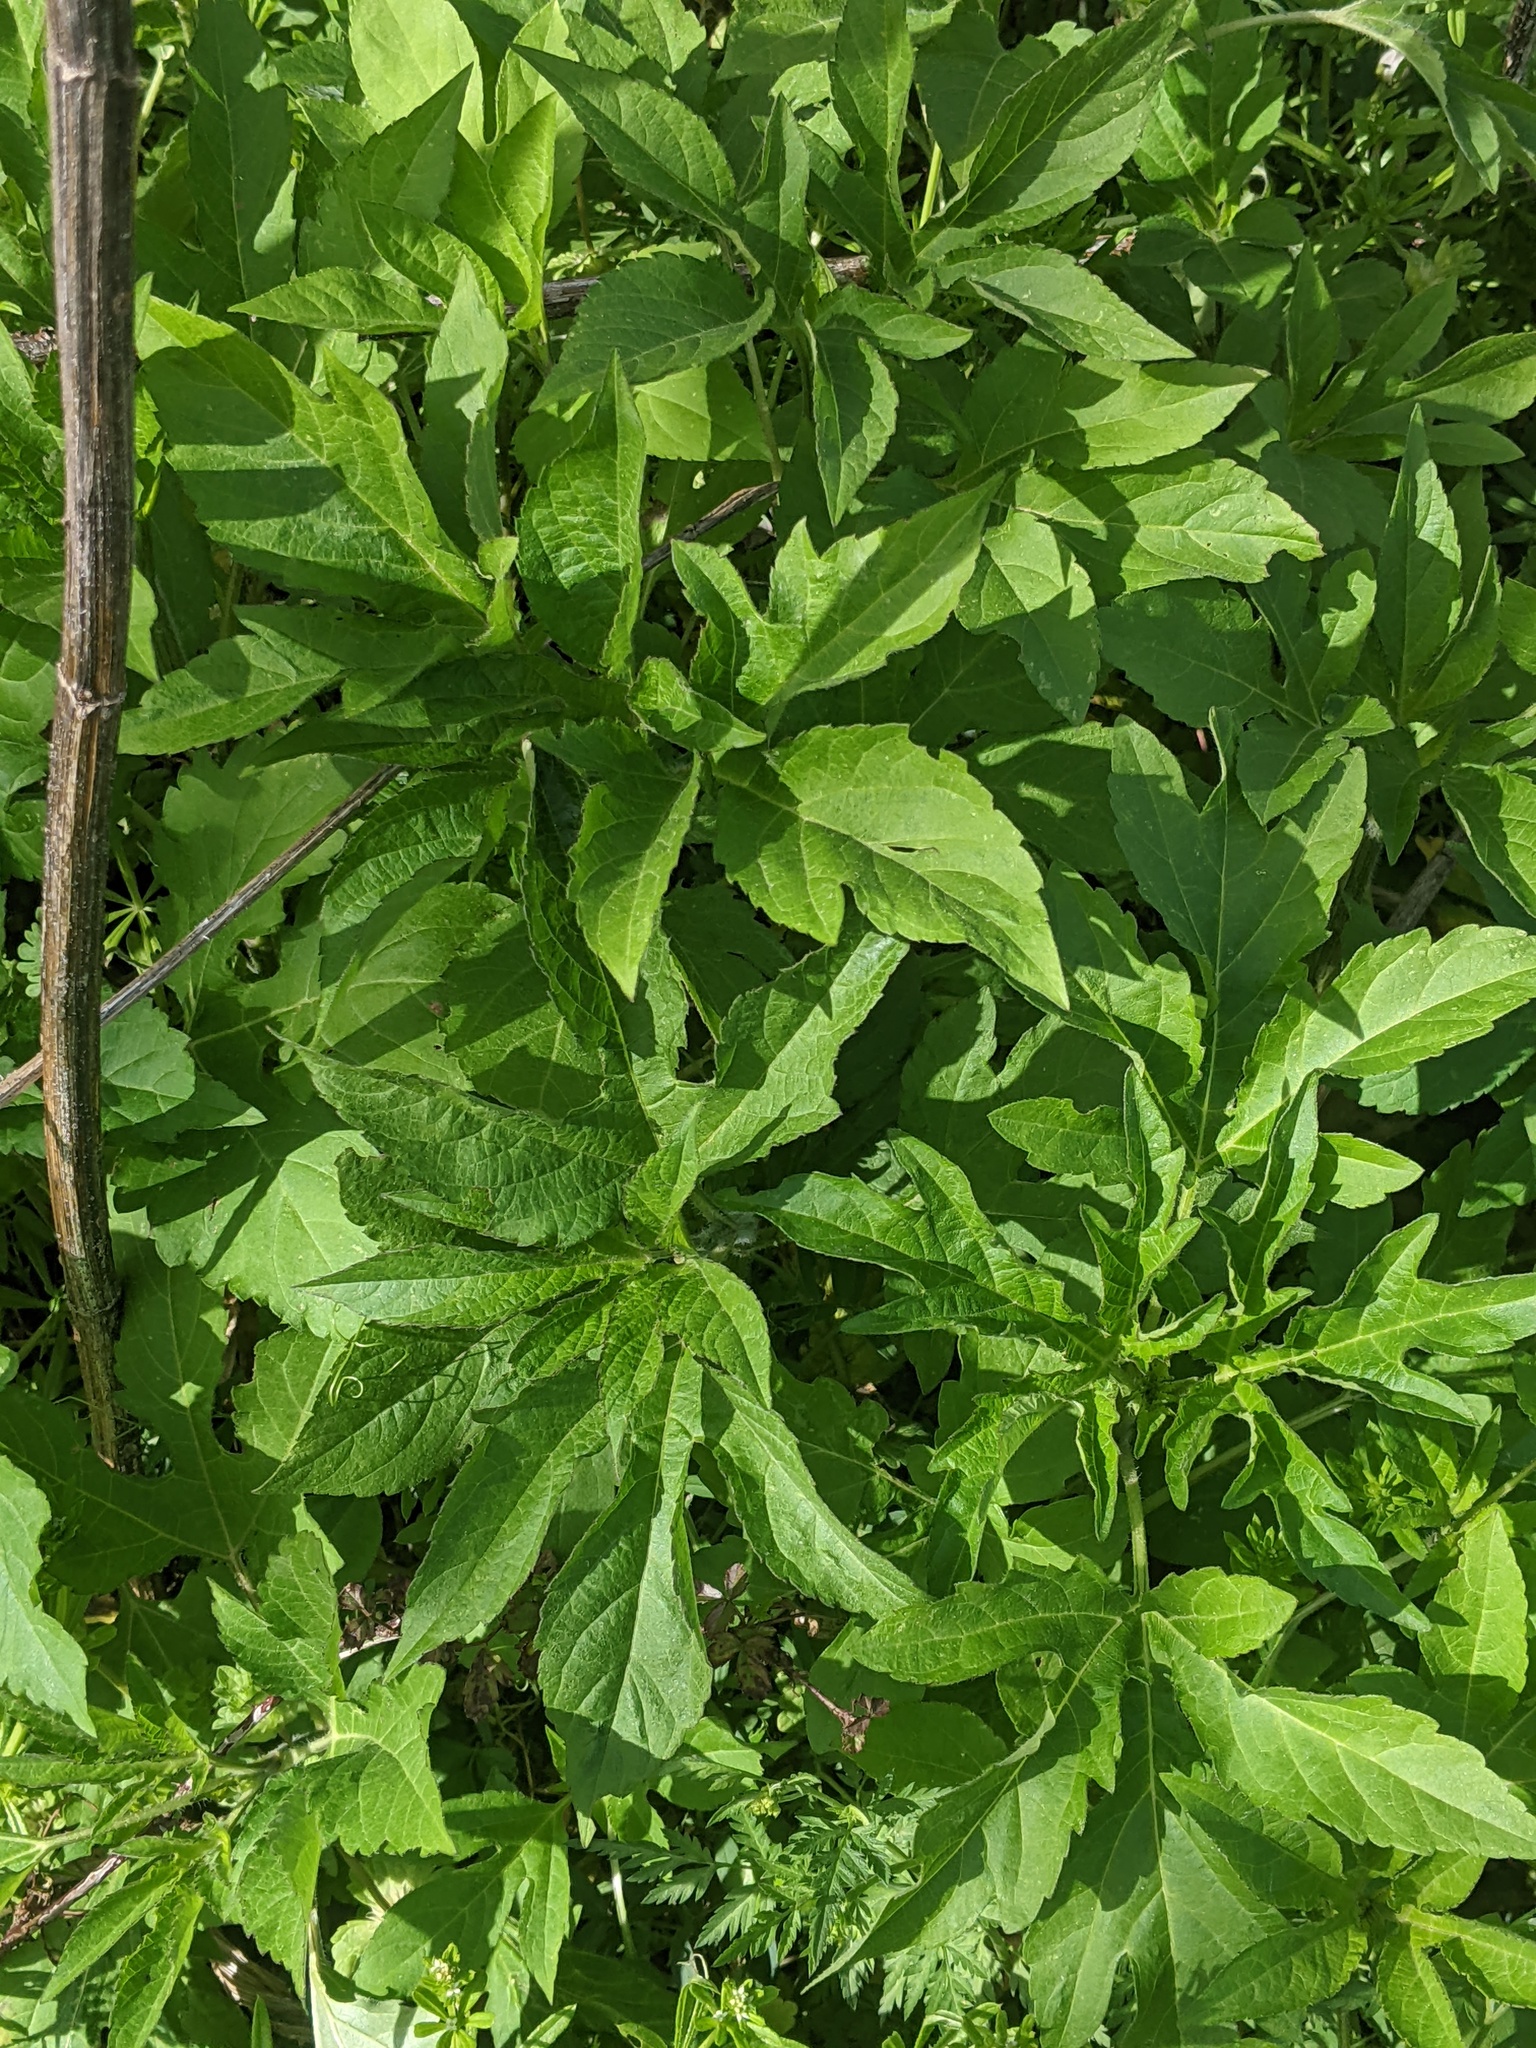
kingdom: Plantae
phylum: Tracheophyta
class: Magnoliopsida
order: Asterales
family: Asteraceae
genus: Ambrosia
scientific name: Ambrosia trifida
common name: Giant ragweed
